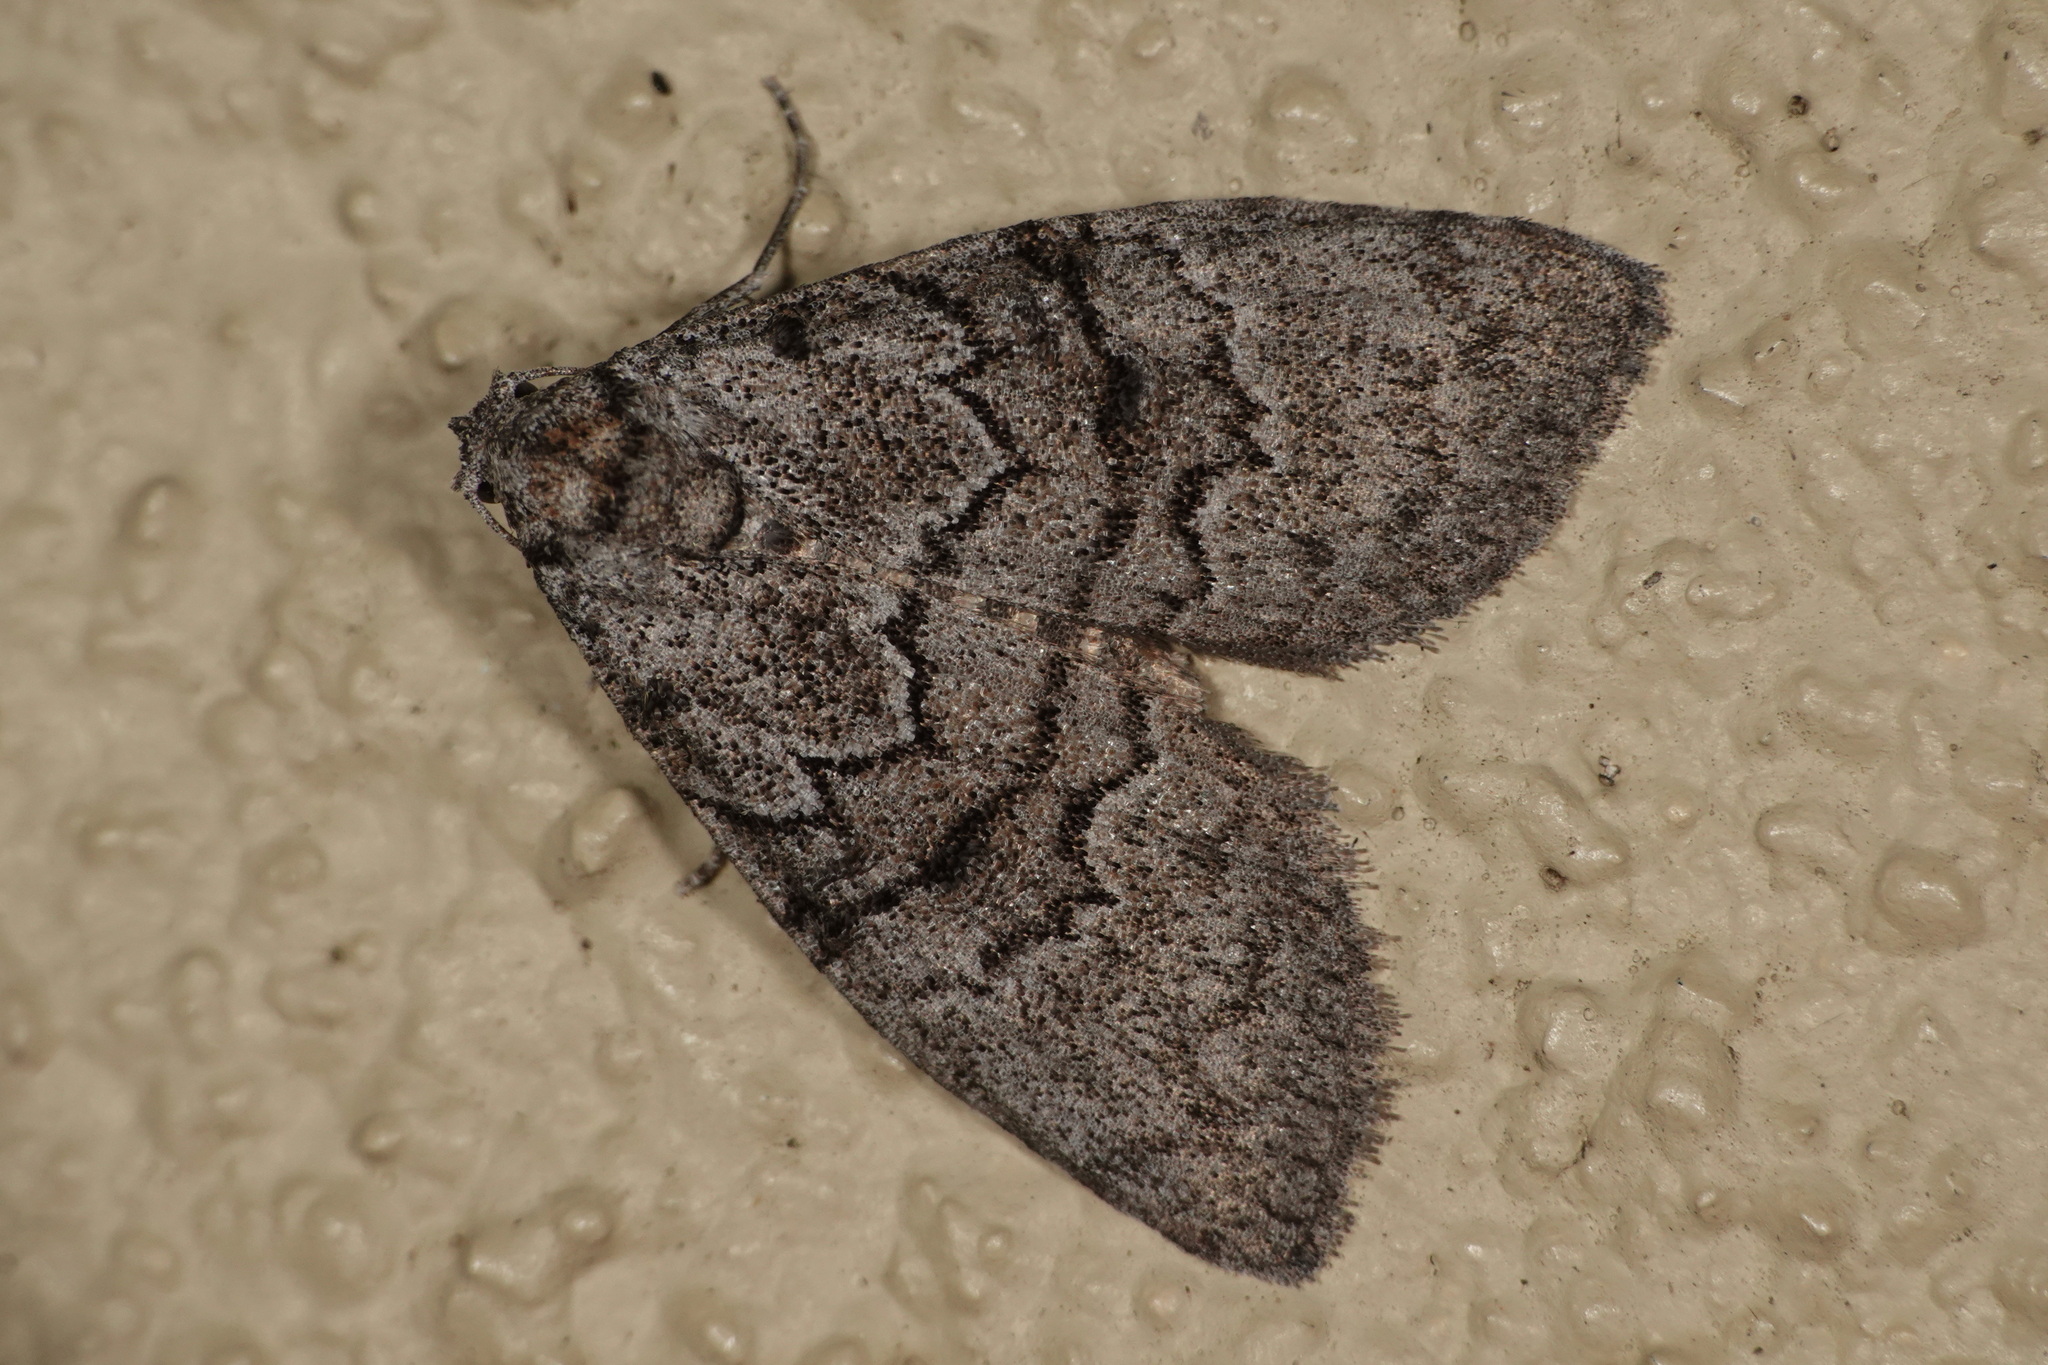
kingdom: Animalia
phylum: Arthropoda
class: Insecta
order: Lepidoptera
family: Nolidae
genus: Uraba
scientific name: Uraba lugens
